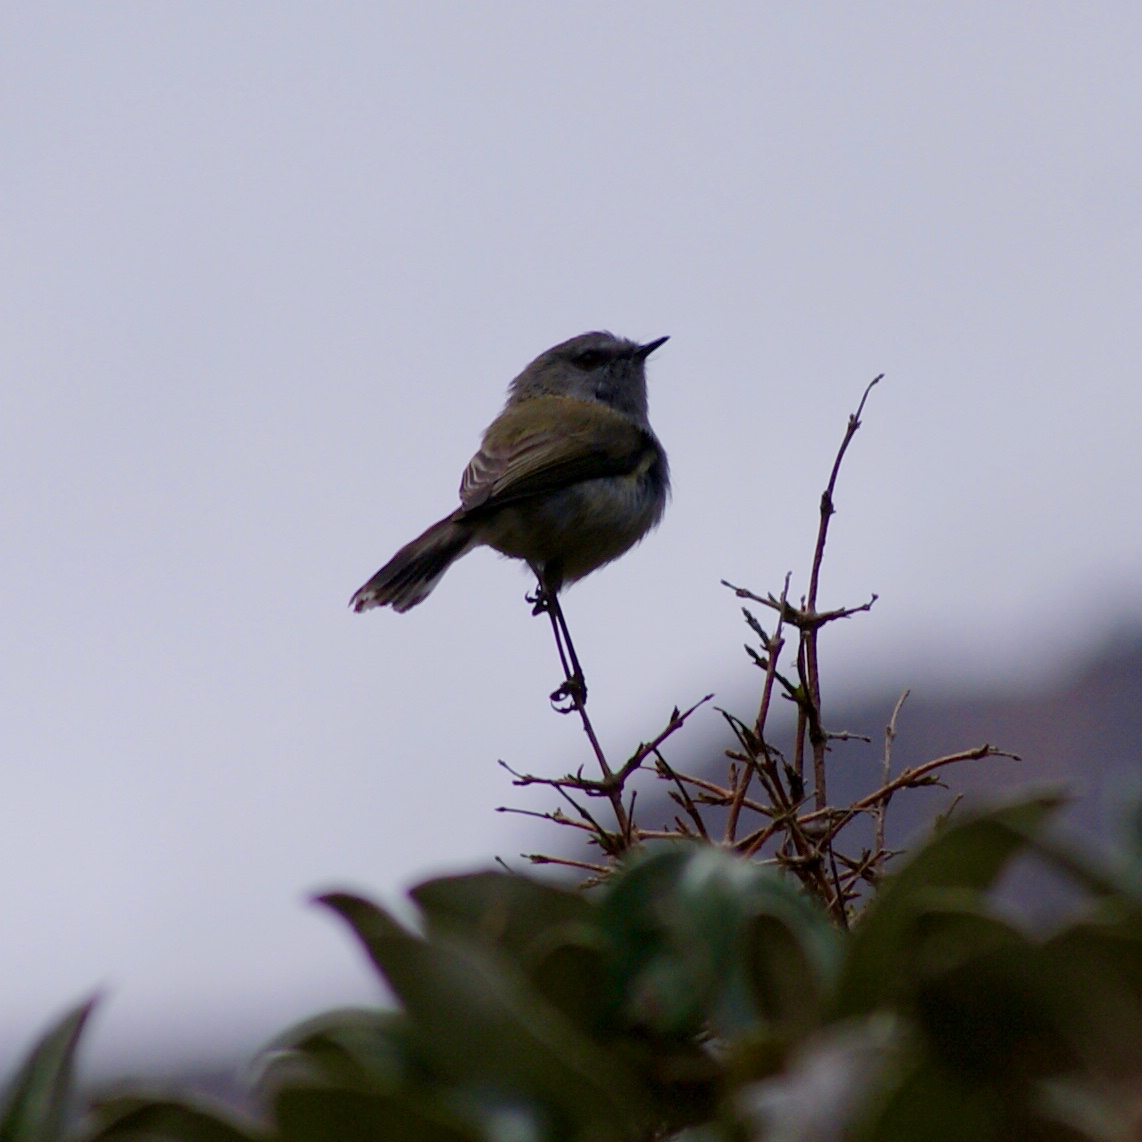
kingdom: Animalia
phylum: Chordata
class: Aves
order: Passeriformes
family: Acanthizidae
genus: Gerygone
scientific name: Gerygone igata
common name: Grey gerygone
